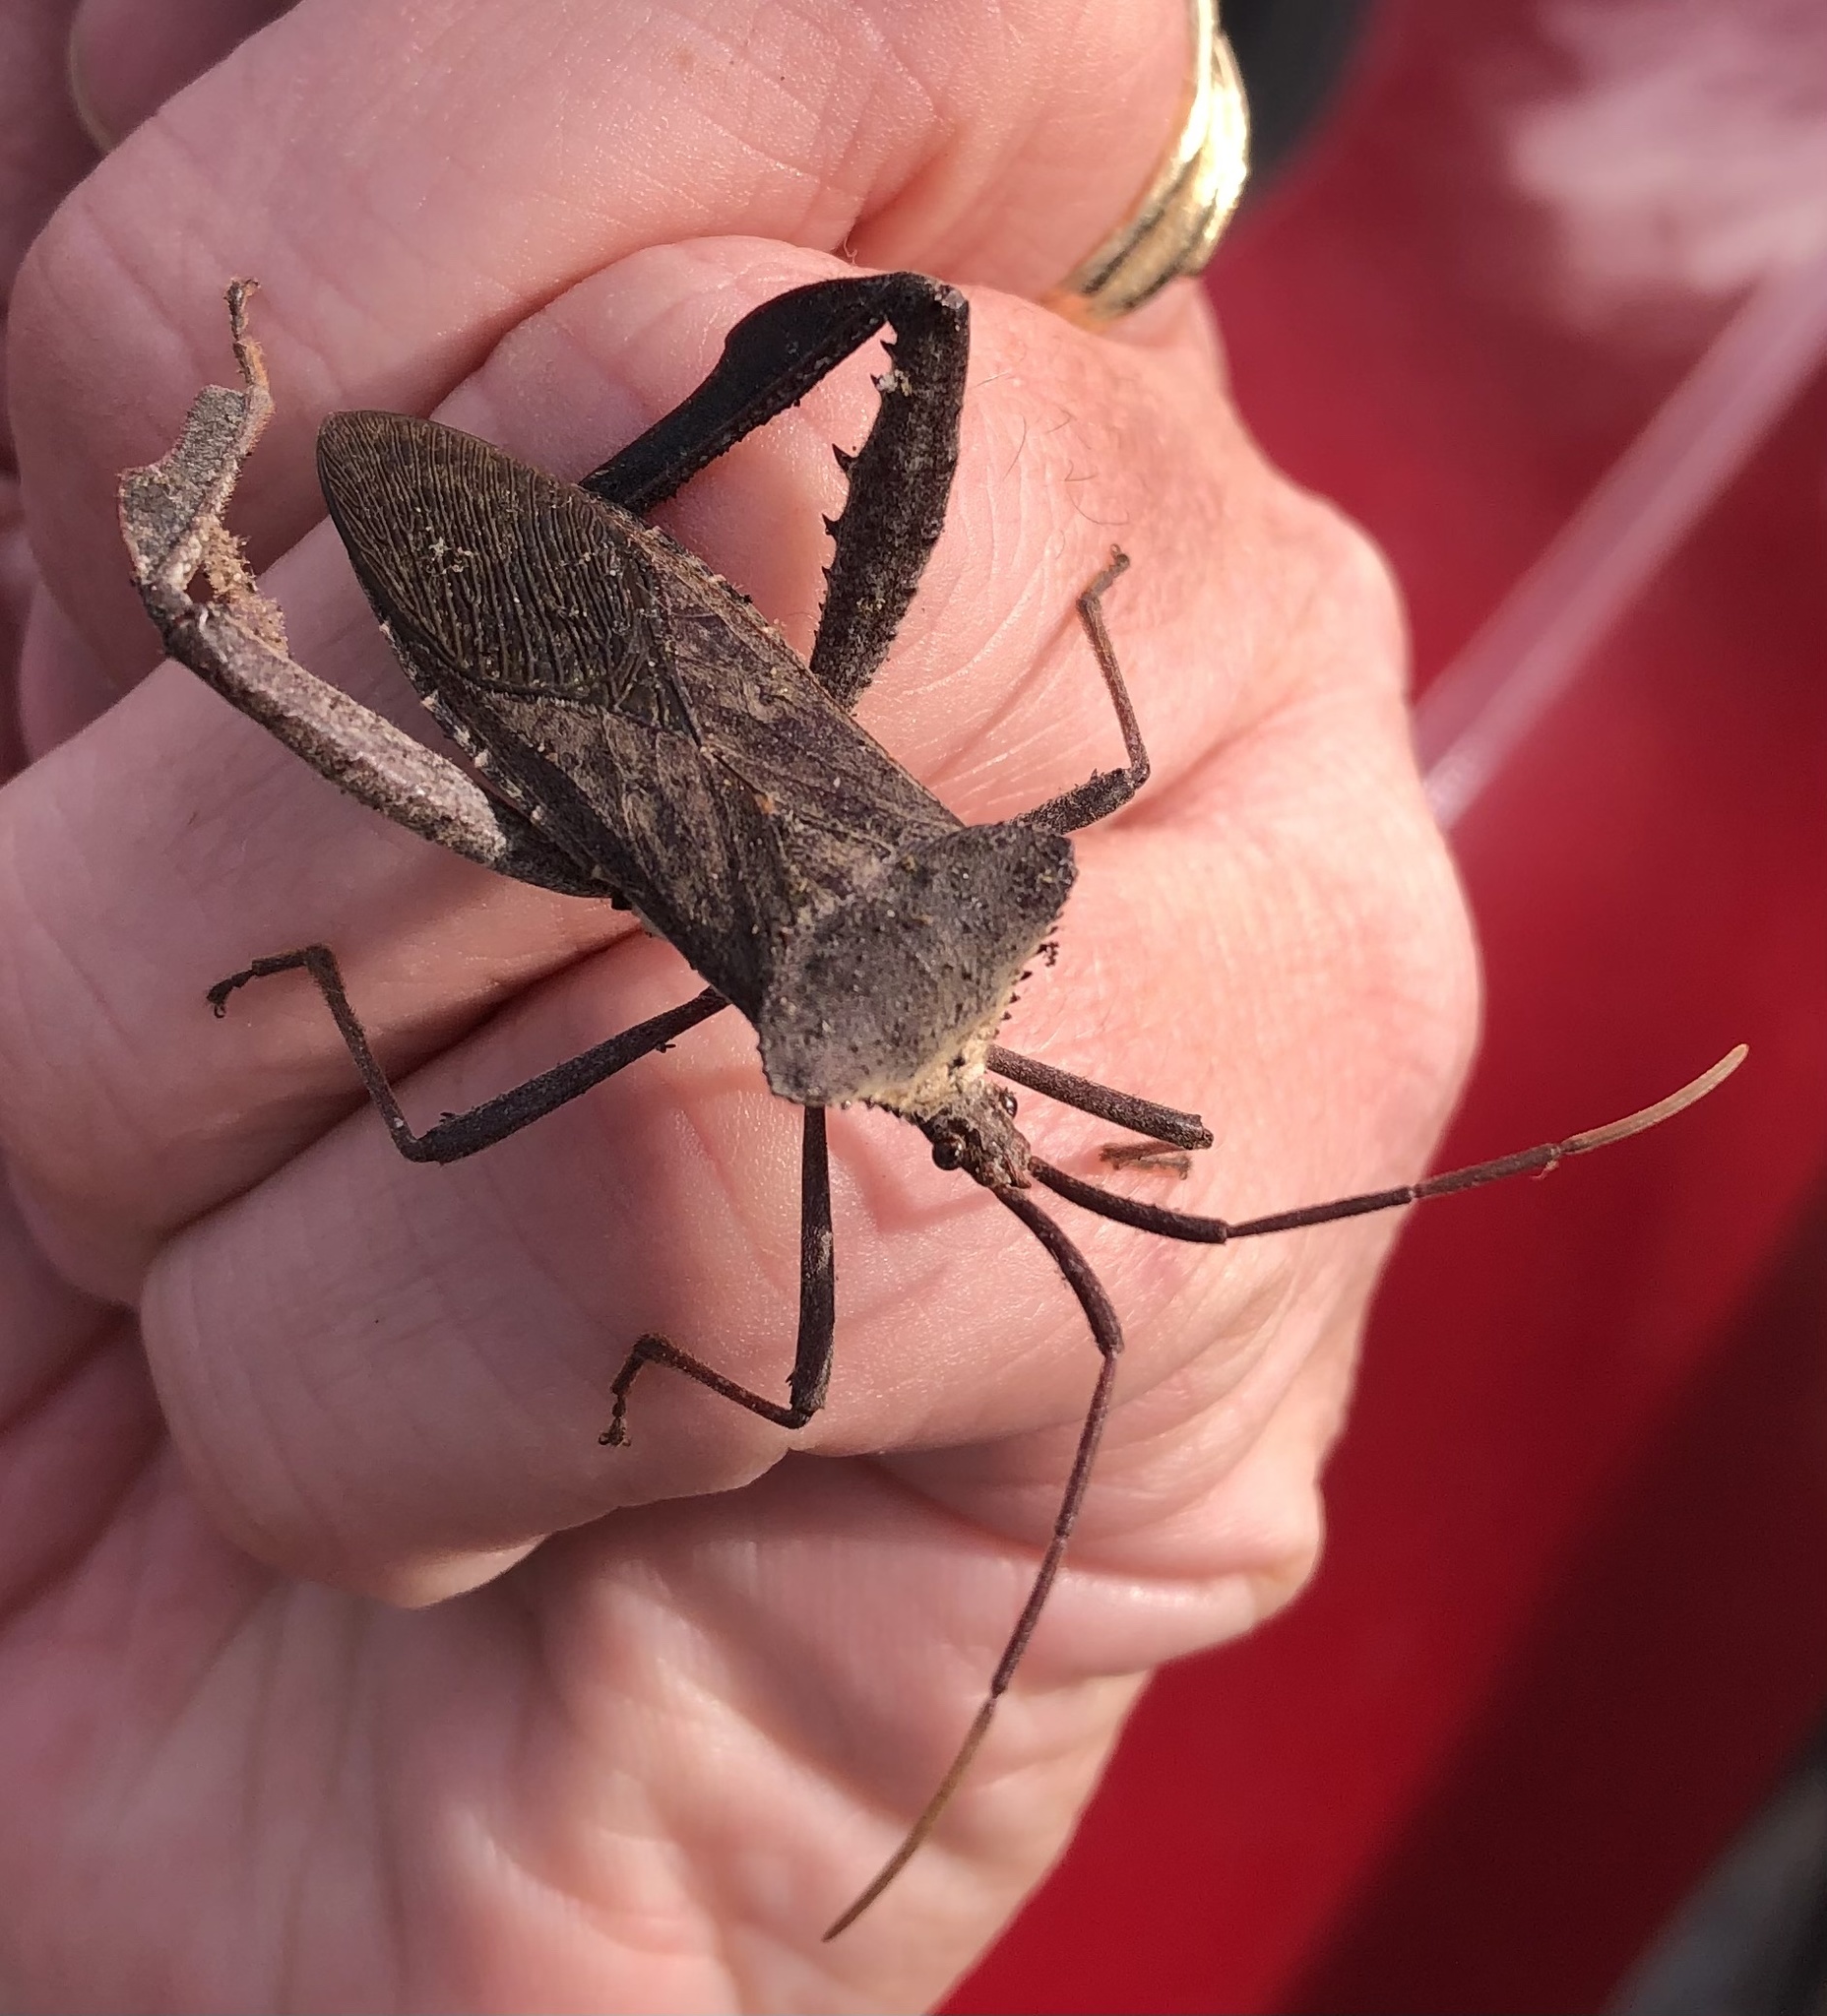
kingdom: Animalia
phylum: Arthropoda
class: Insecta
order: Hemiptera
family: Coreidae
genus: Acanthocephala
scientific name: Acanthocephala declivis
